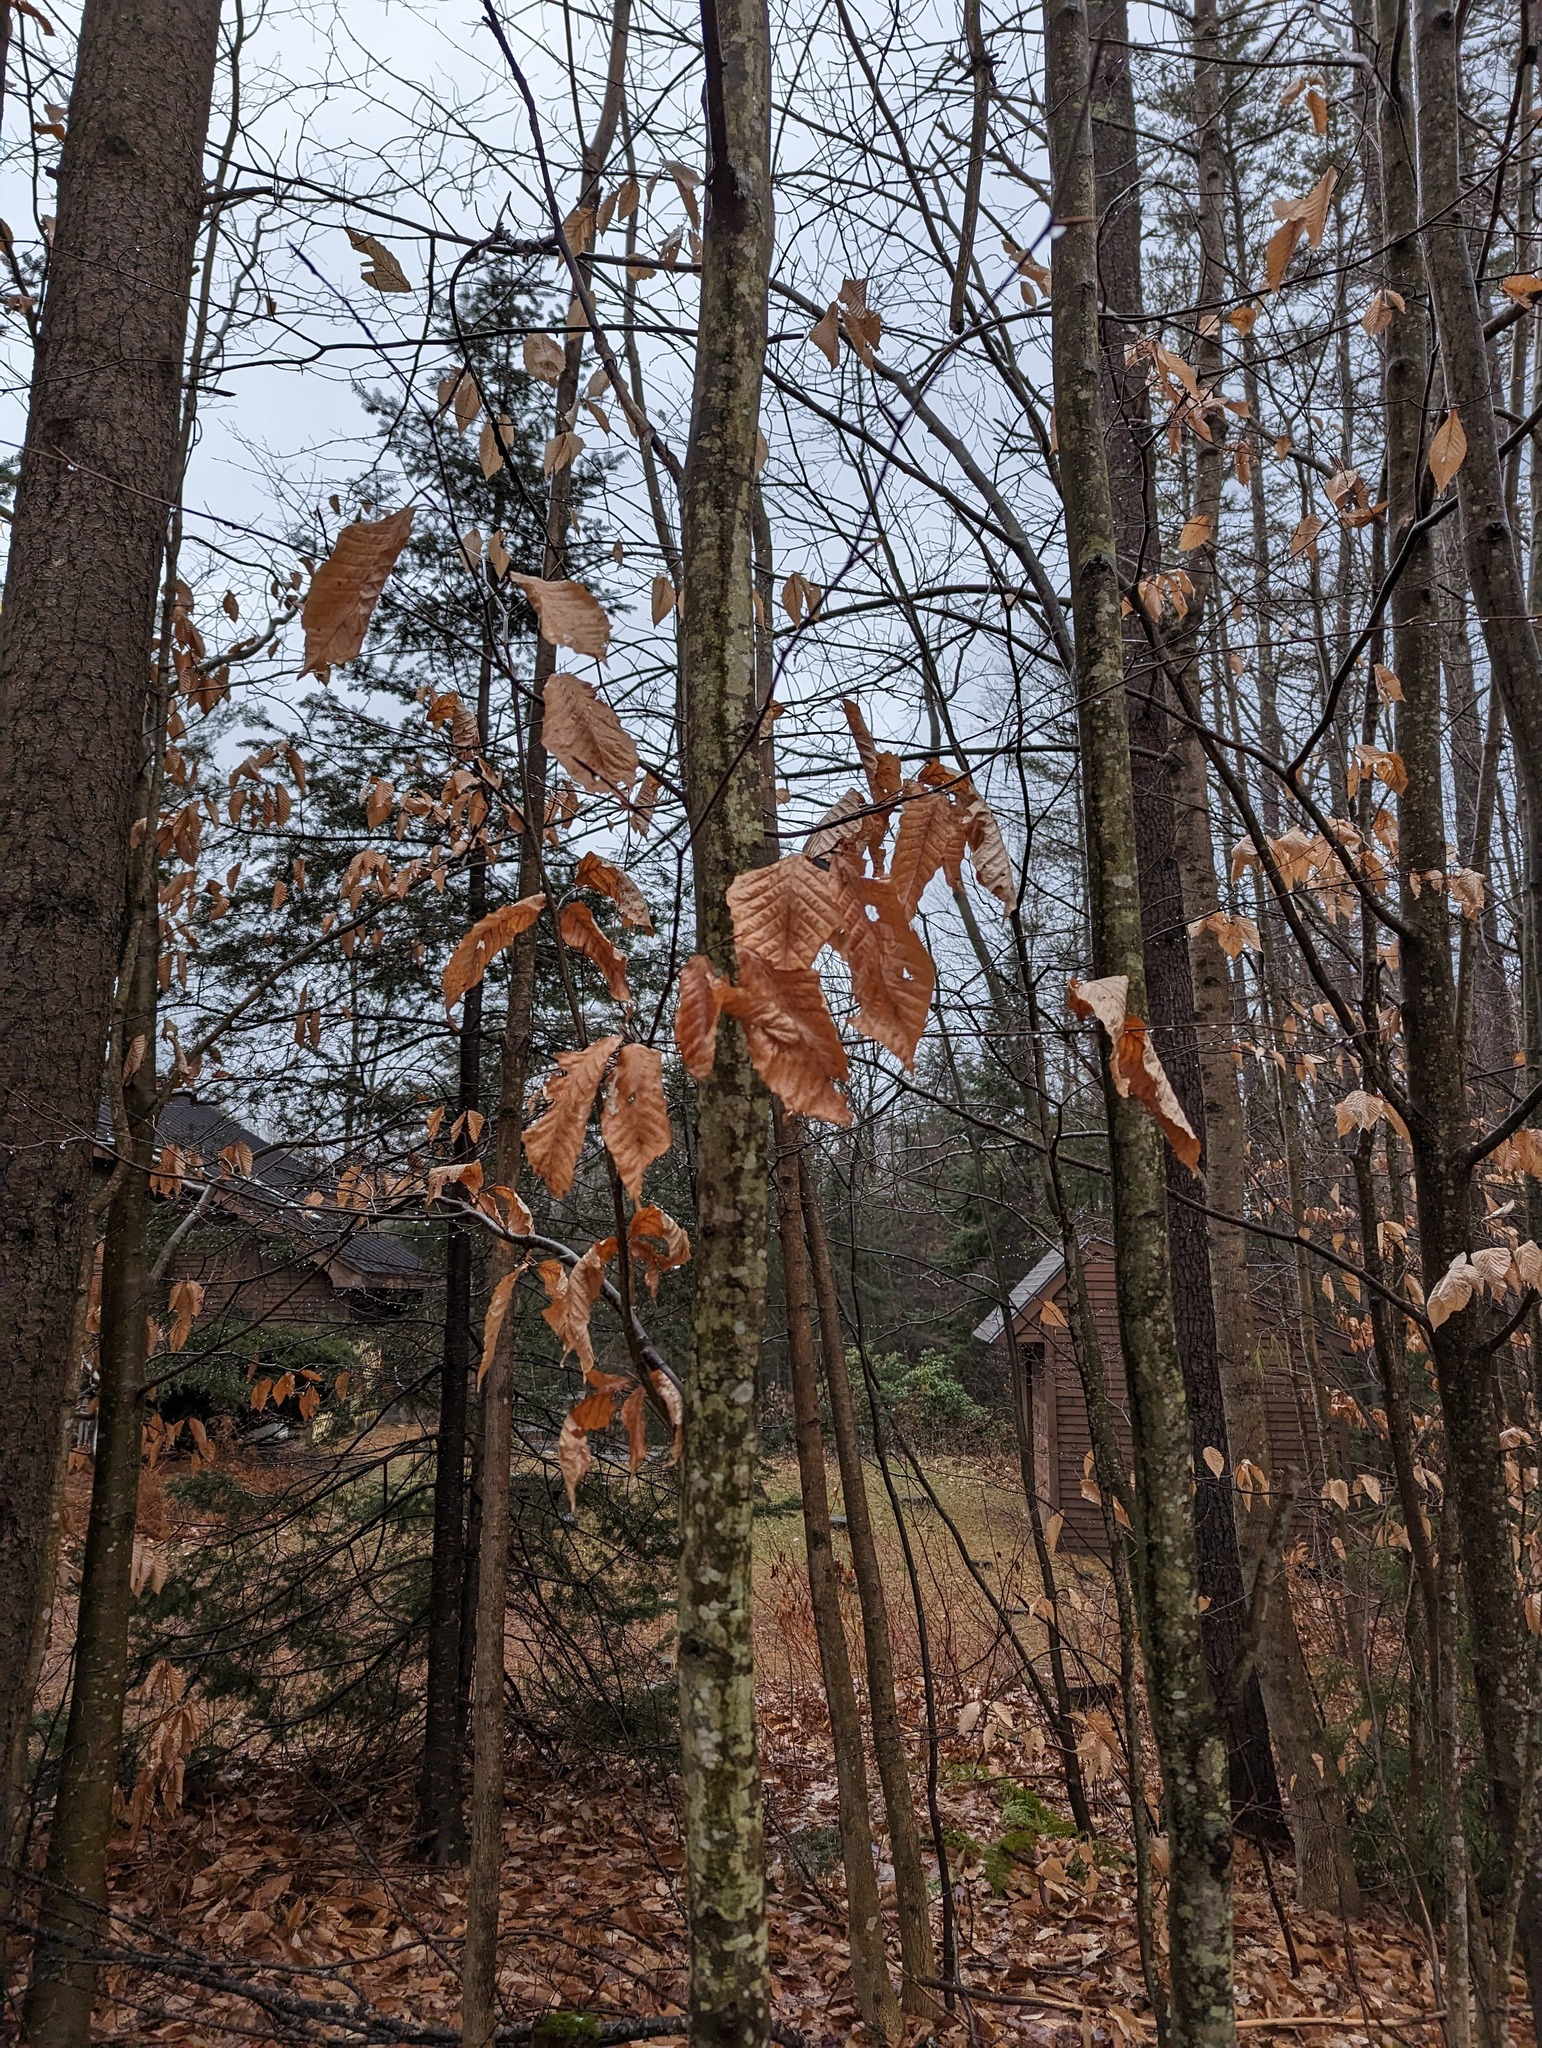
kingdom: Plantae
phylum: Tracheophyta
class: Magnoliopsida
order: Fagales
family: Fagaceae
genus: Fagus
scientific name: Fagus grandifolia
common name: American beech
